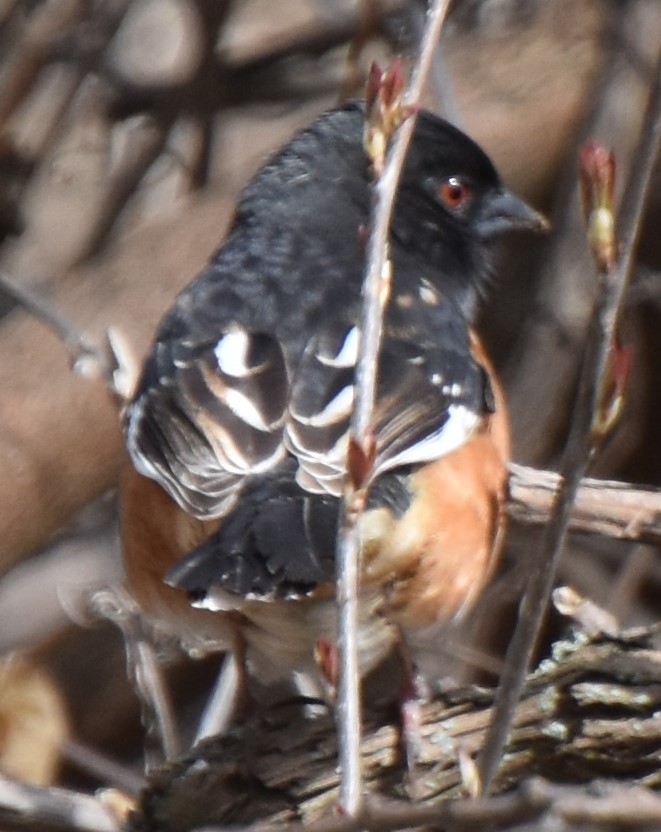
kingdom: Animalia
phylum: Chordata
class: Aves
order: Passeriformes
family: Passerellidae
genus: Pipilo
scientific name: Pipilo erythrophthalmus
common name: Eastern towhee
